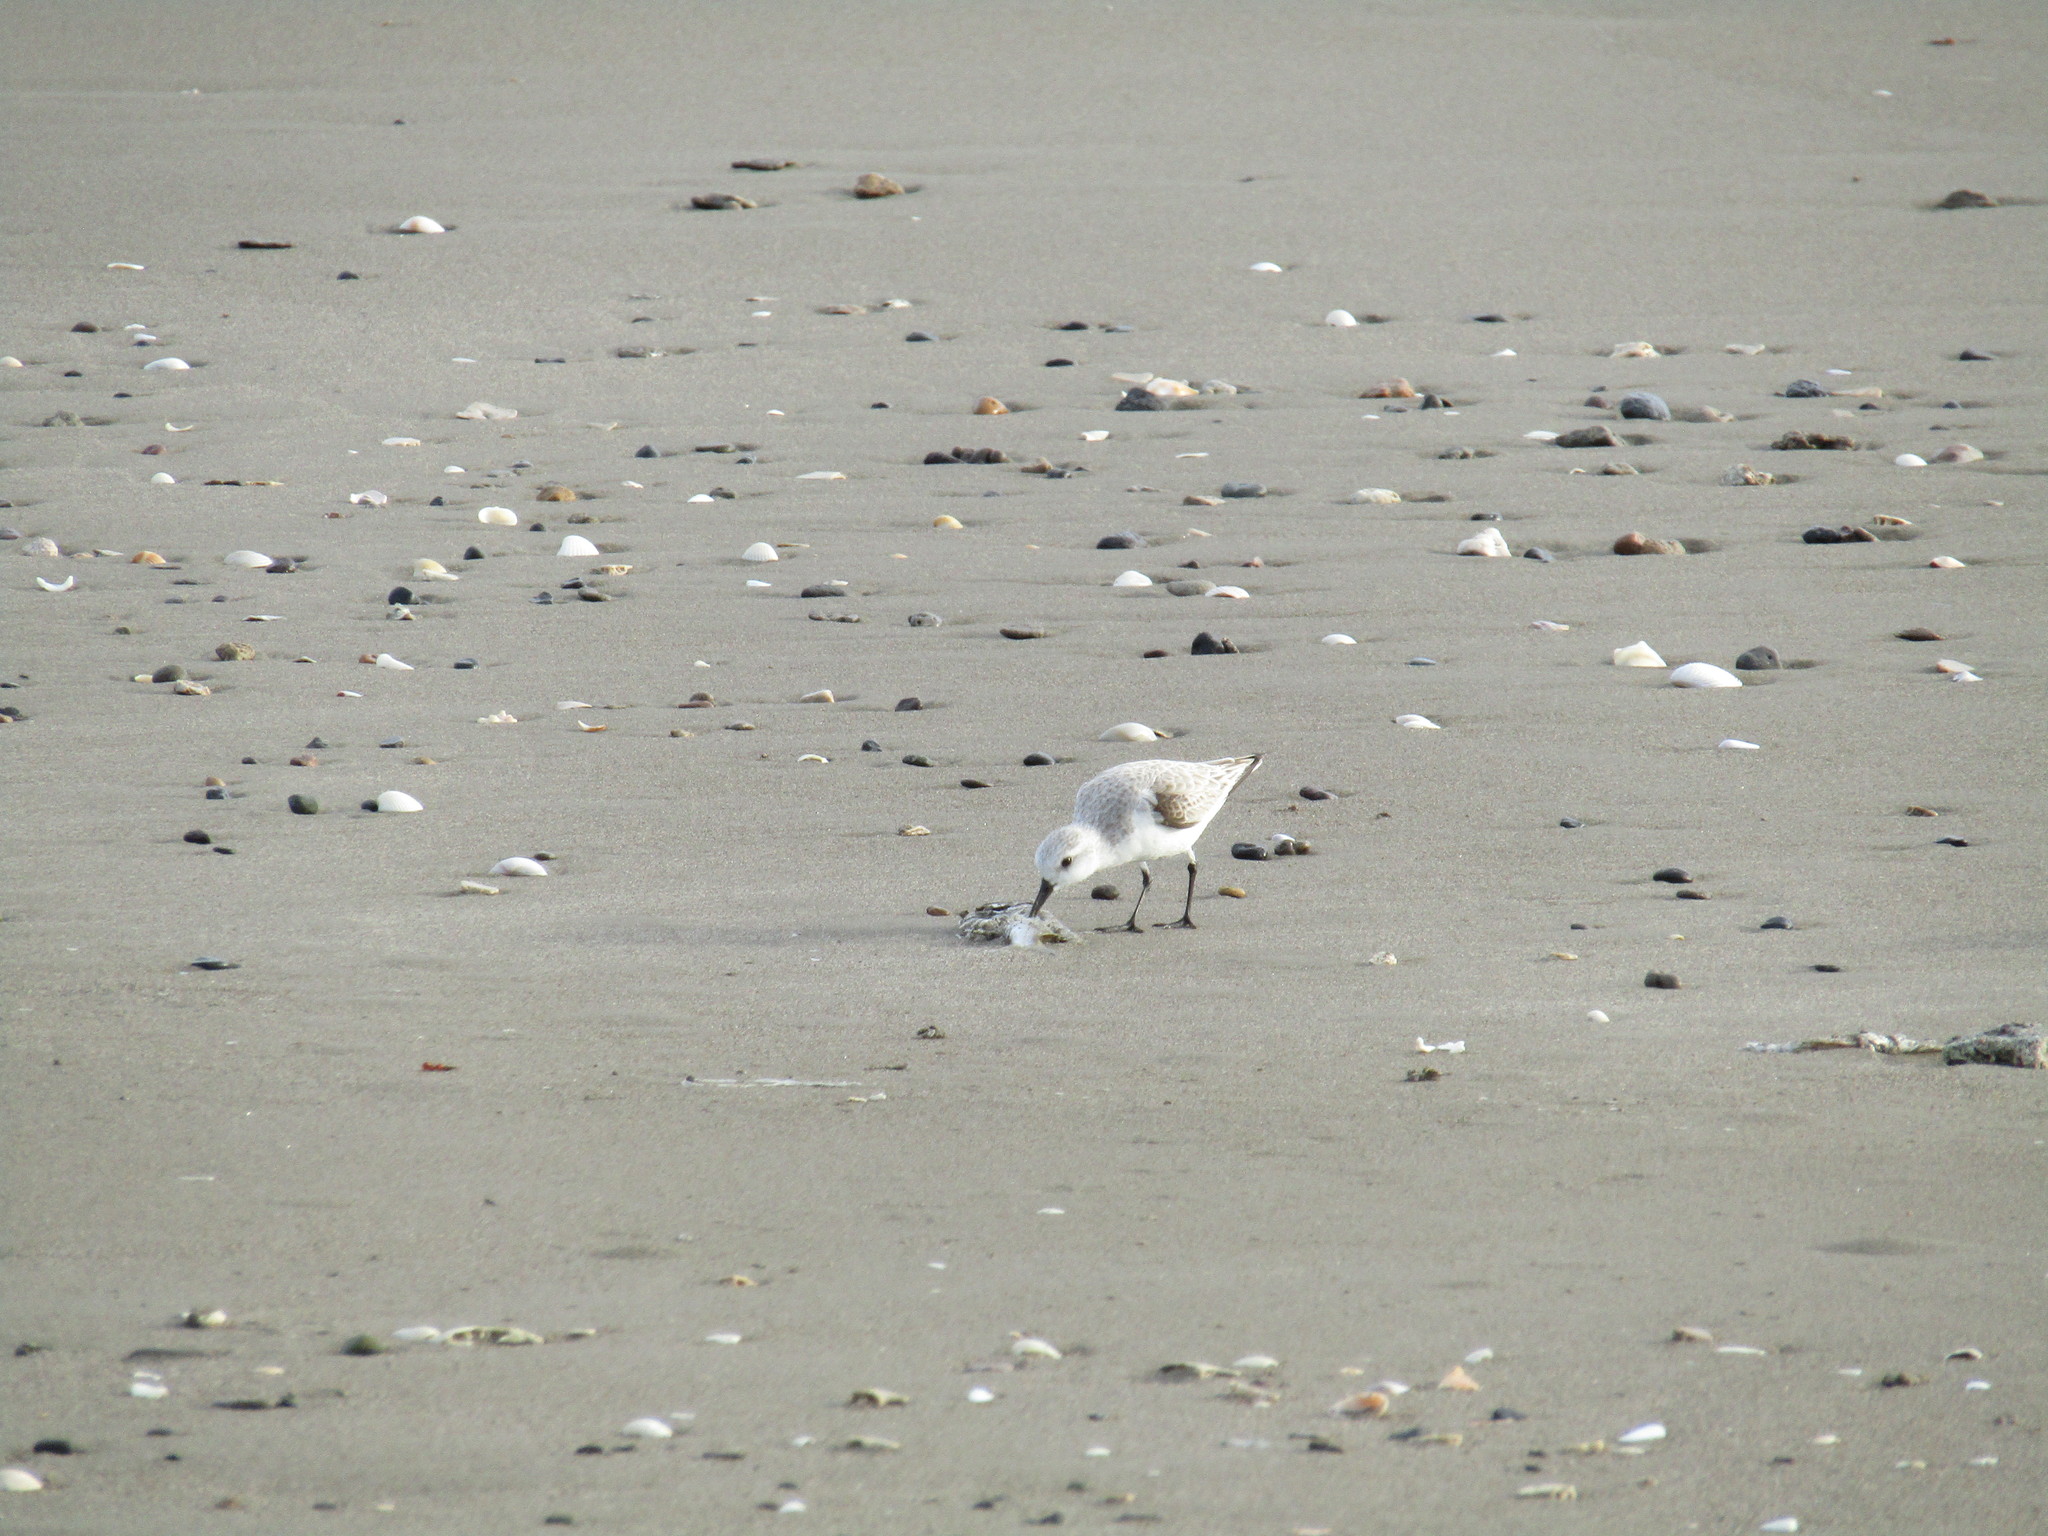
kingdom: Animalia
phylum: Chordata
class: Aves
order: Charadriiformes
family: Scolopacidae
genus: Calidris
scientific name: Calidris alba
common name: Sanderling
